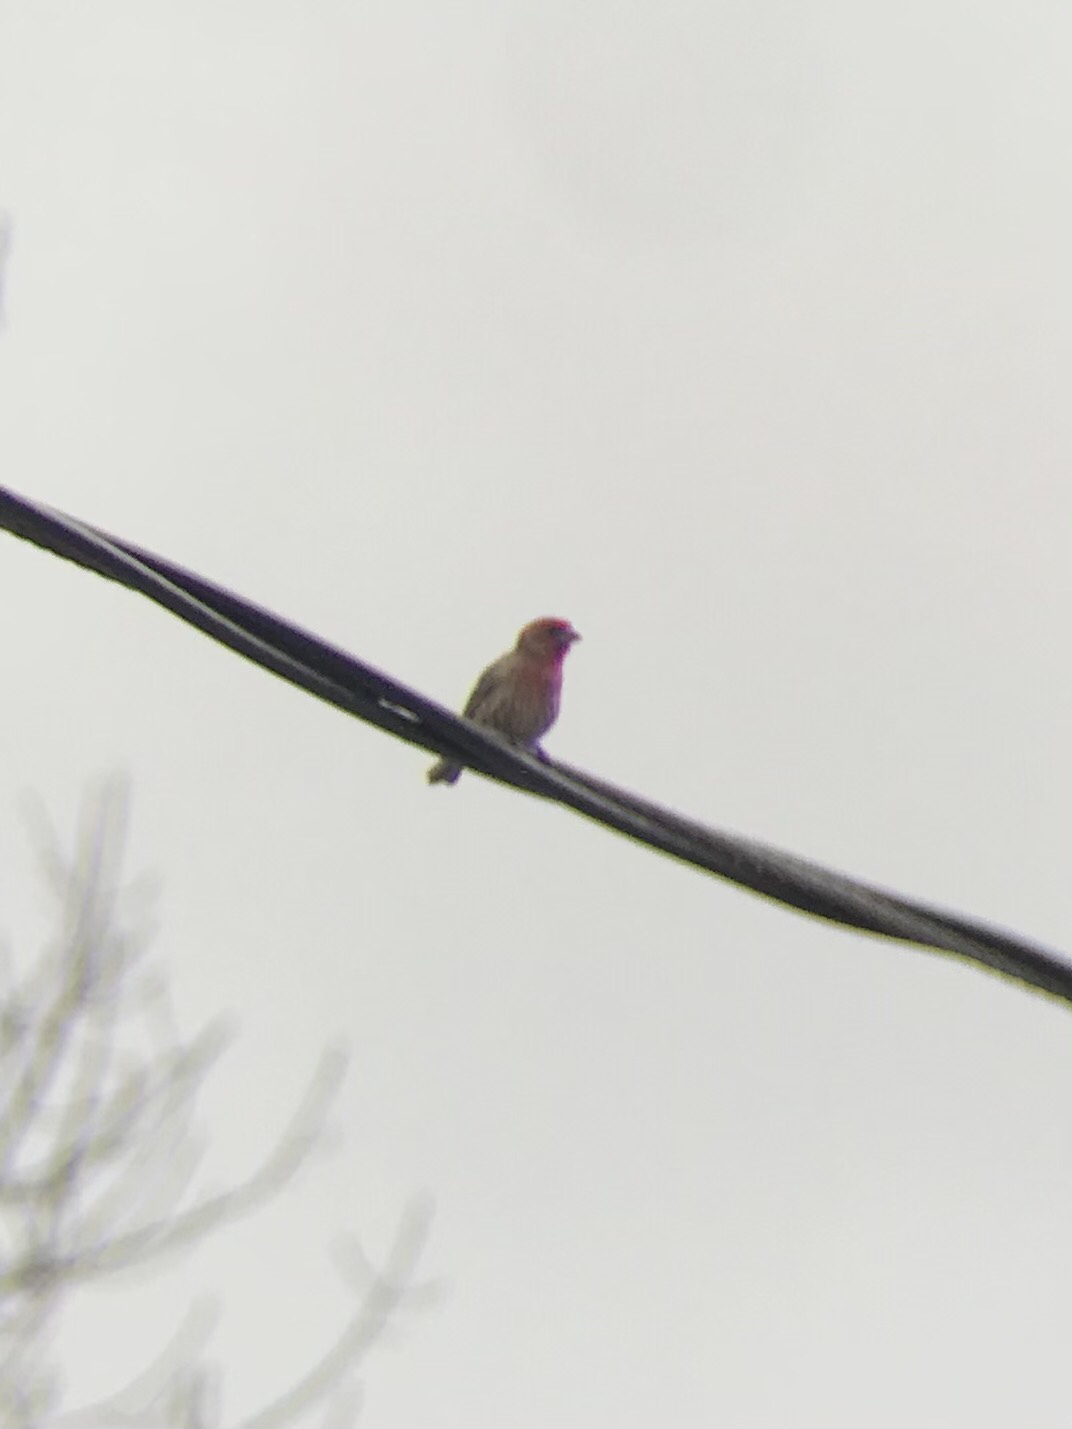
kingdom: Animalia
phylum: Chordata
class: Aves
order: Passeriformes
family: Fringillidae
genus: Haemorhous
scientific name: Haemorhous mexicanus
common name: House finch
